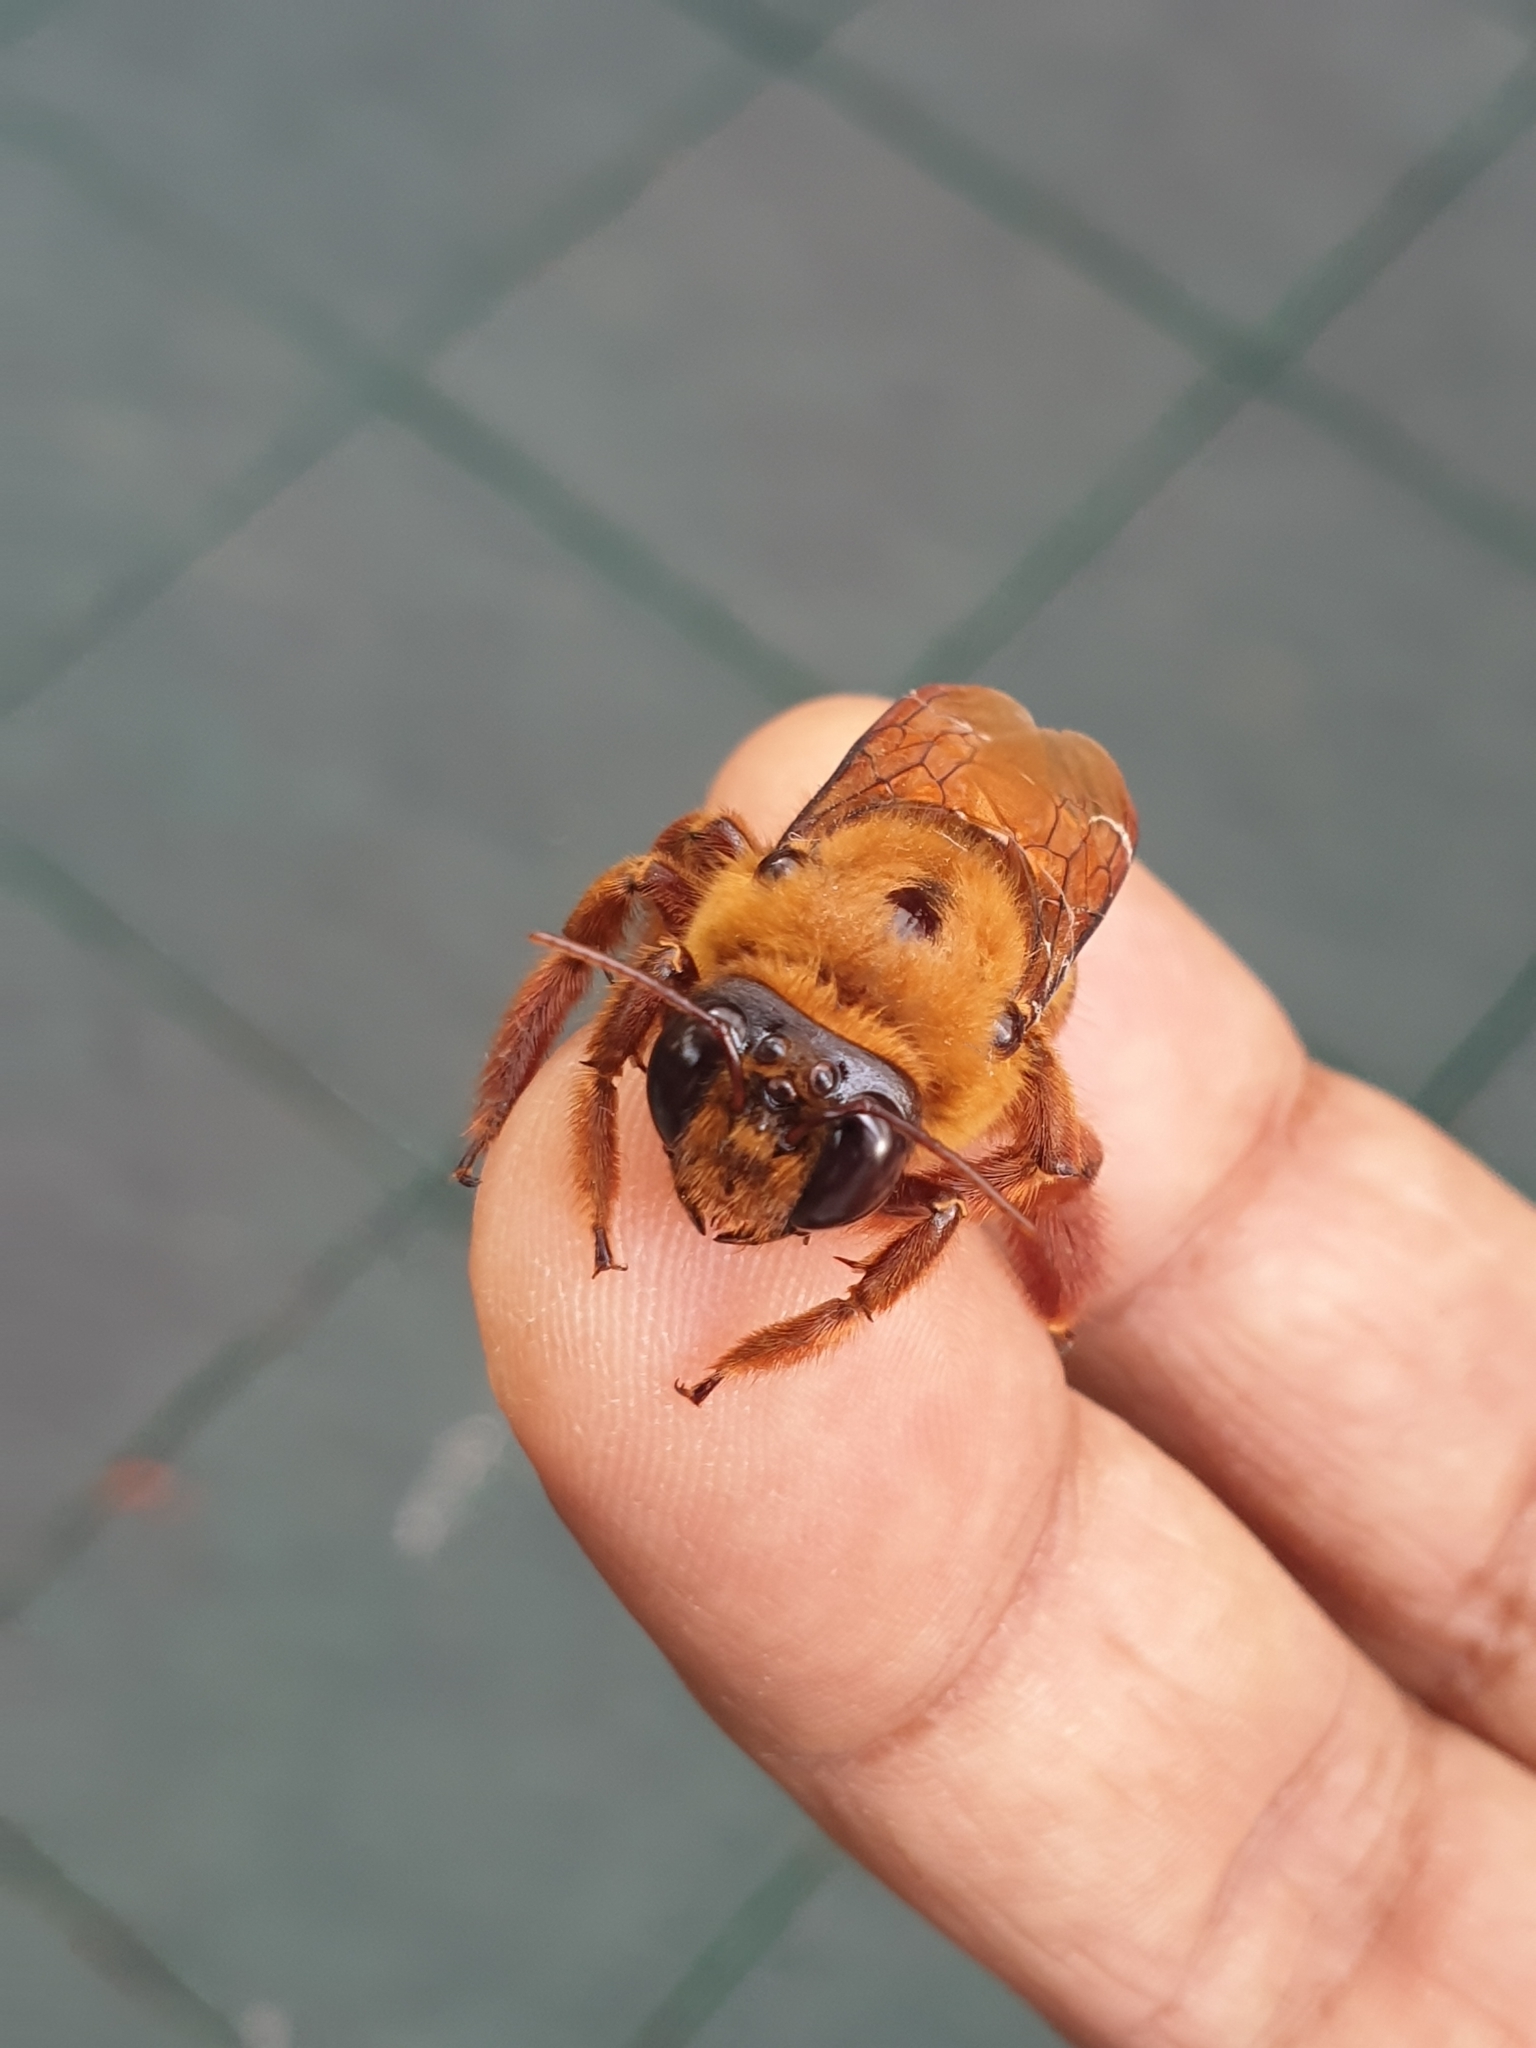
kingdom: Animalia
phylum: Arthropoda
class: Insecta
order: Hymenoptera
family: Apidae
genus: Xylocopa
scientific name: Xylocopa tranquebarica
